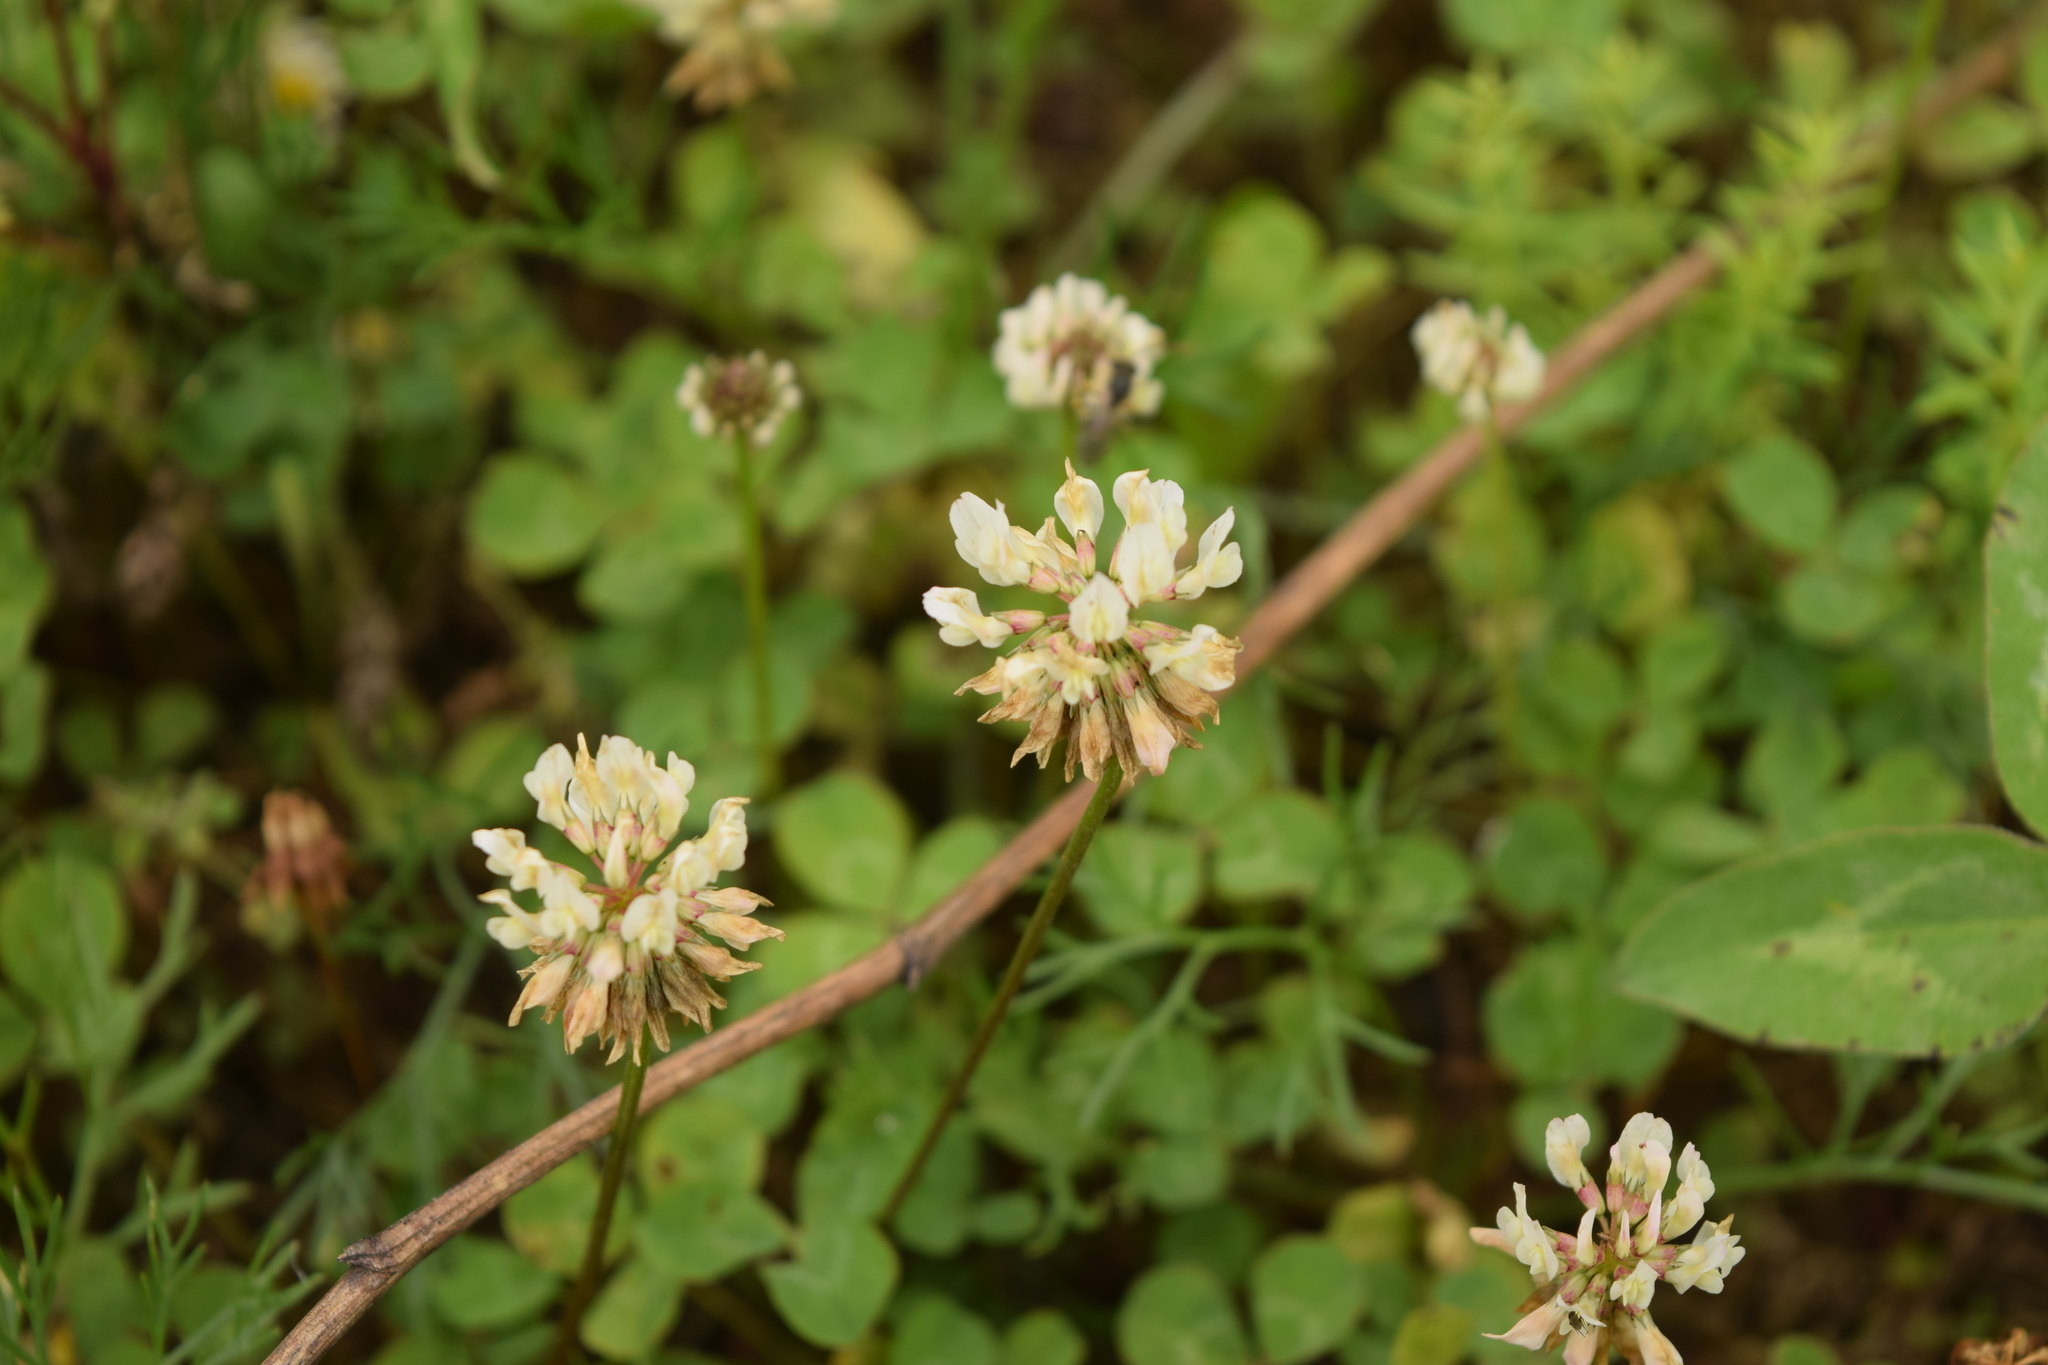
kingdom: Plantae
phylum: Tracheophyta
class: Magnoliopsida
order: Fabales
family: Fabaceae
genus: Trifolium
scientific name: Trifolium repens
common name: White clover
